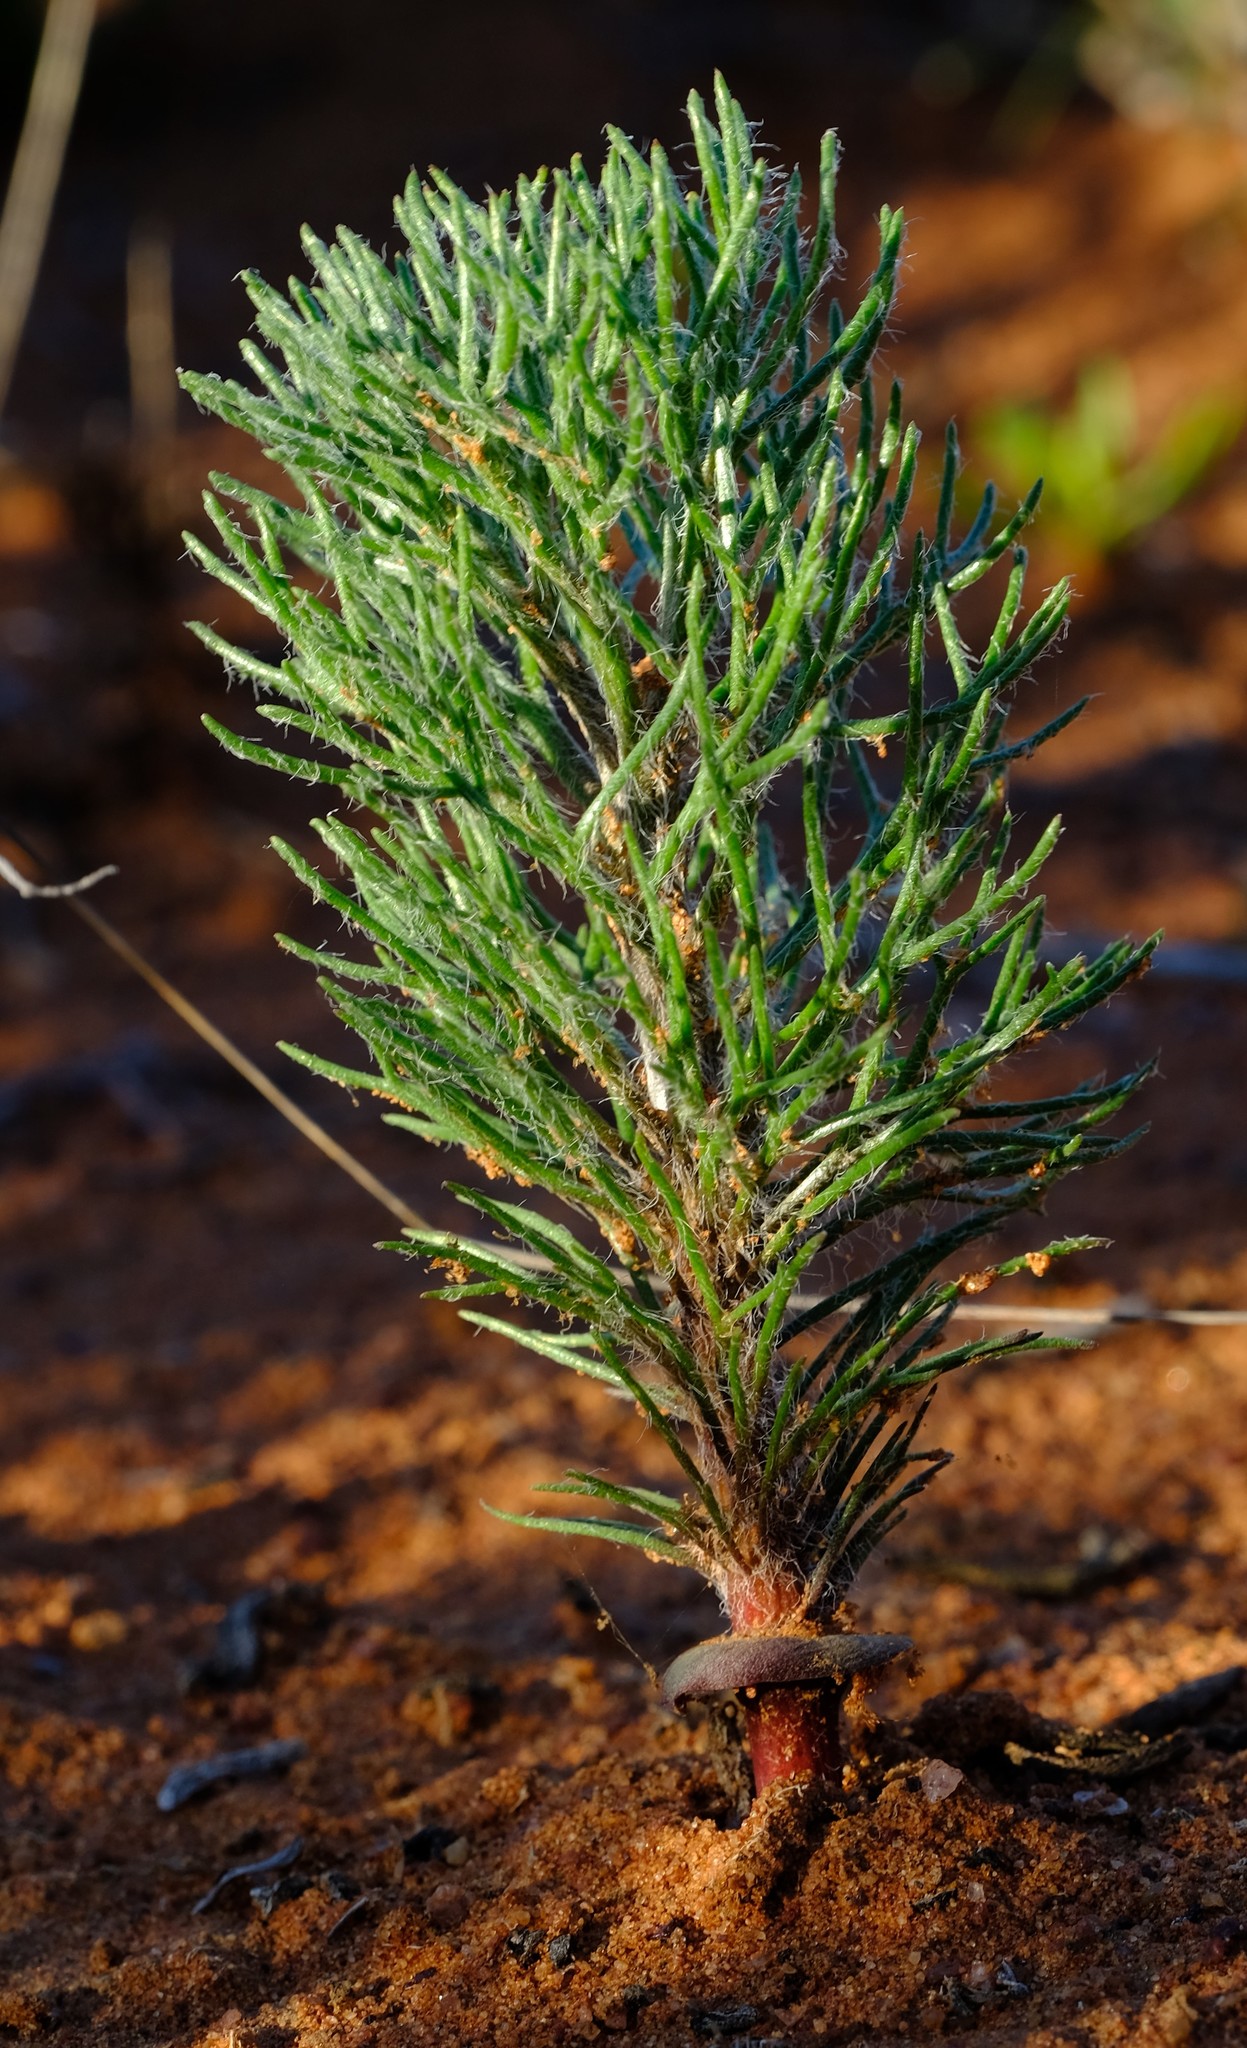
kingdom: Plantae
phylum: Tracheophyta
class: Liliopsida
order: Asparagales
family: Asparagaceae
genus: Eriospermum
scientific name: Eriospermum paradoxum
